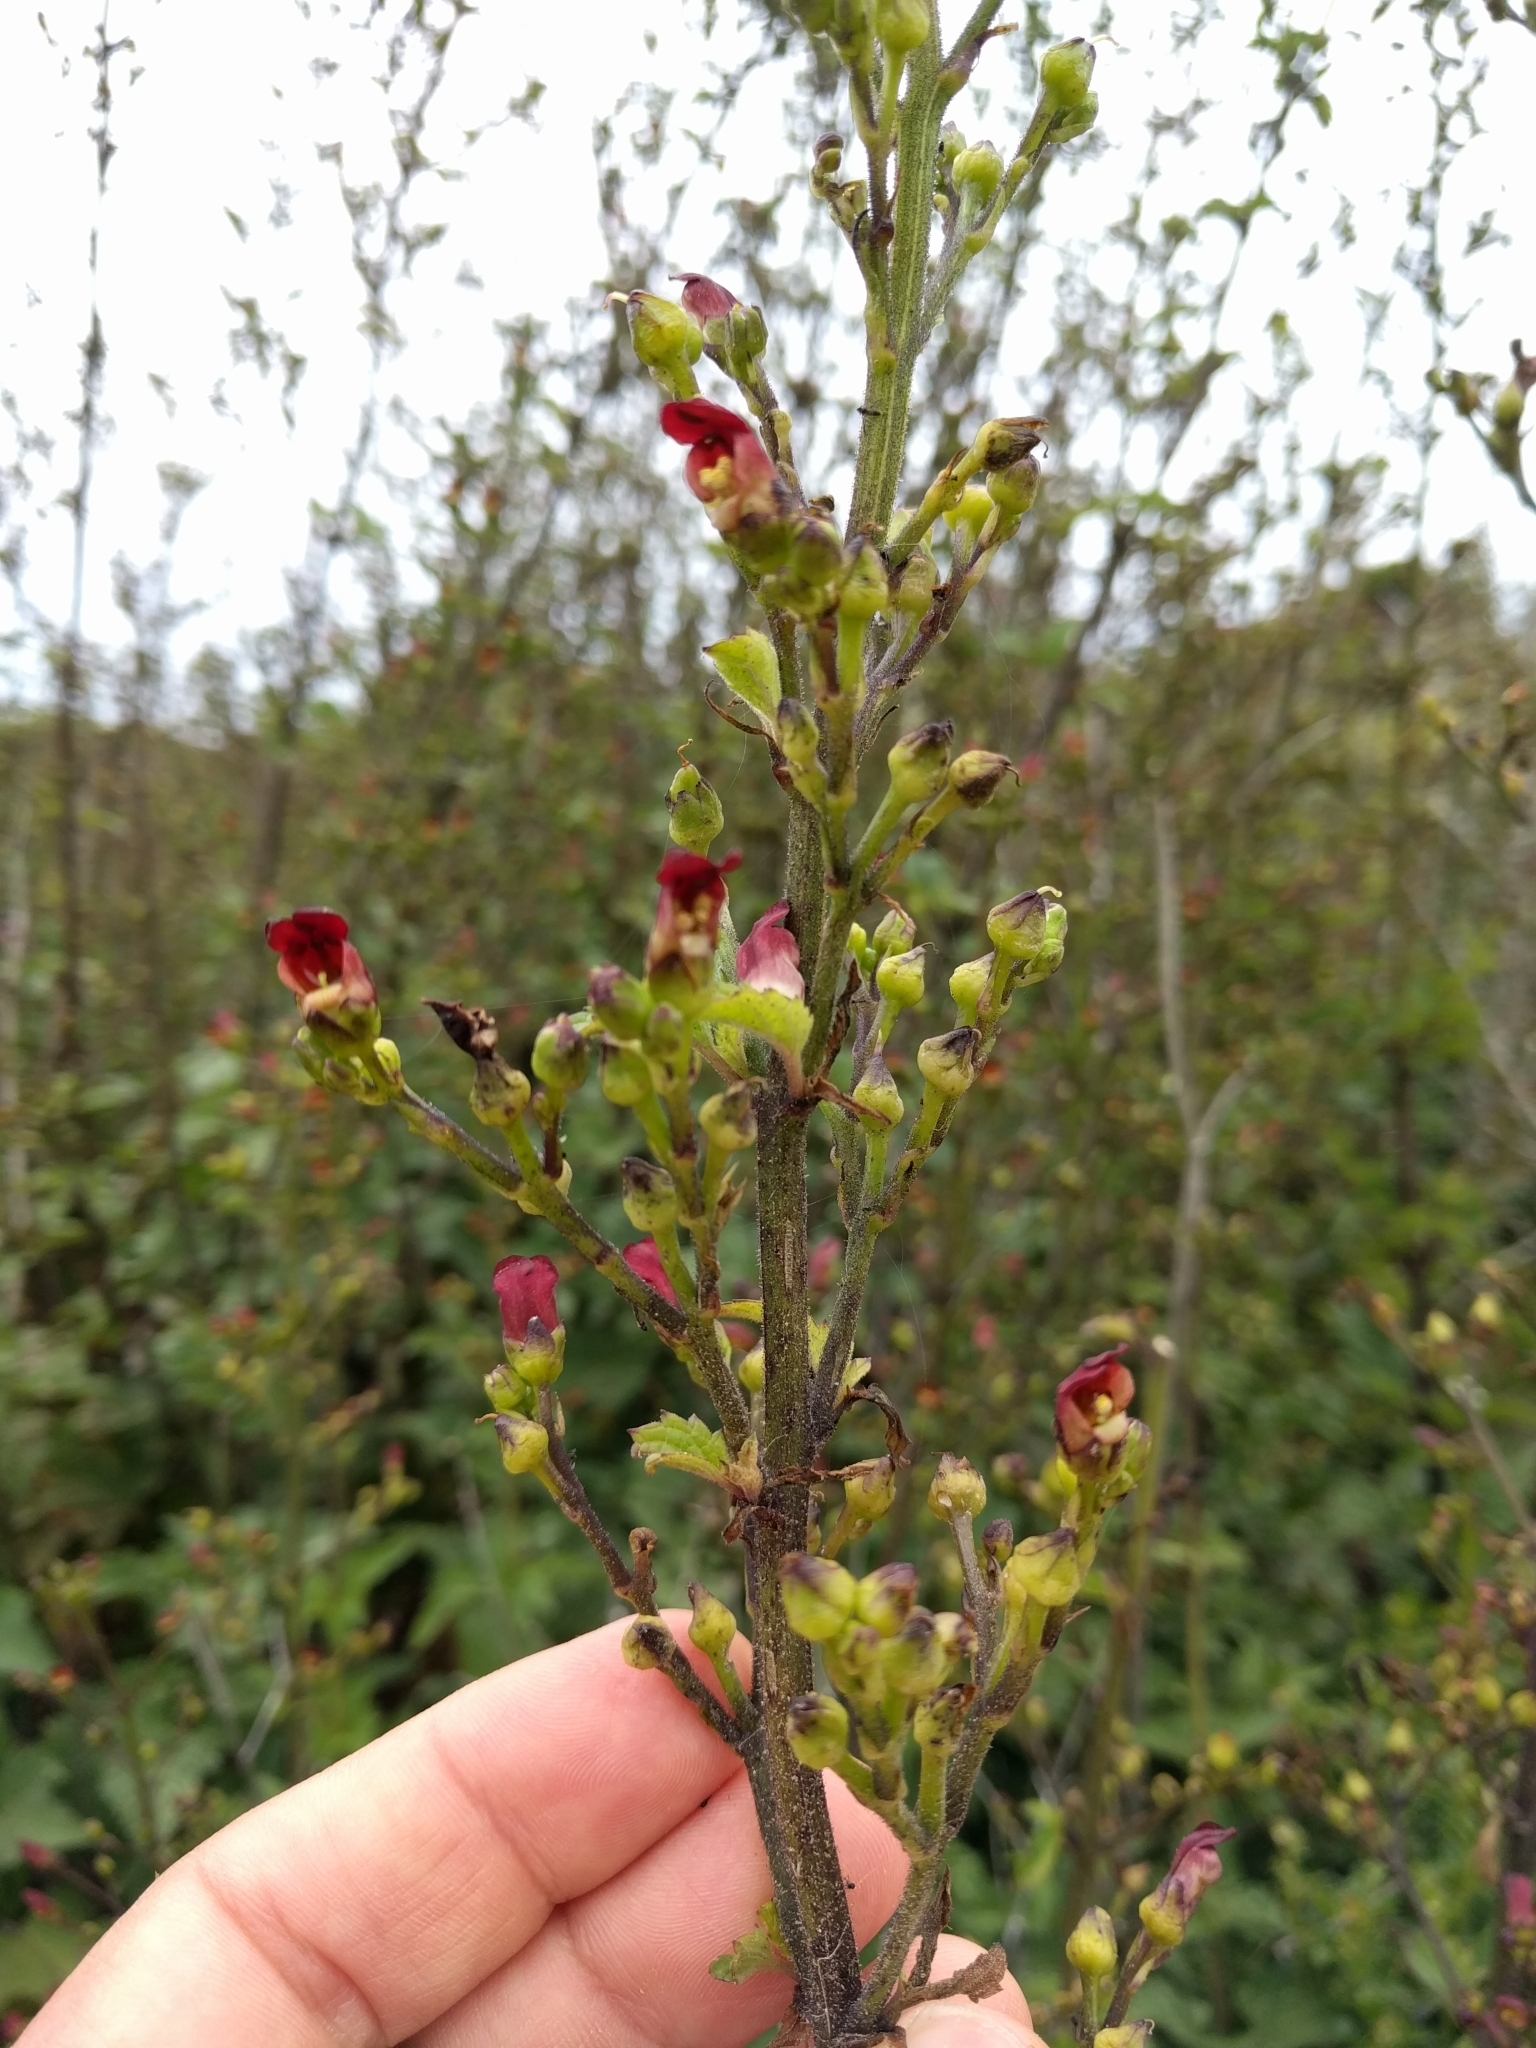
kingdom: Plantae
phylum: Tracheophyta
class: Magnoliopsida
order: Lamiales
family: Scrophulariaceae
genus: Scrophularia
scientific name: Scrophularia californica
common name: California figwort
